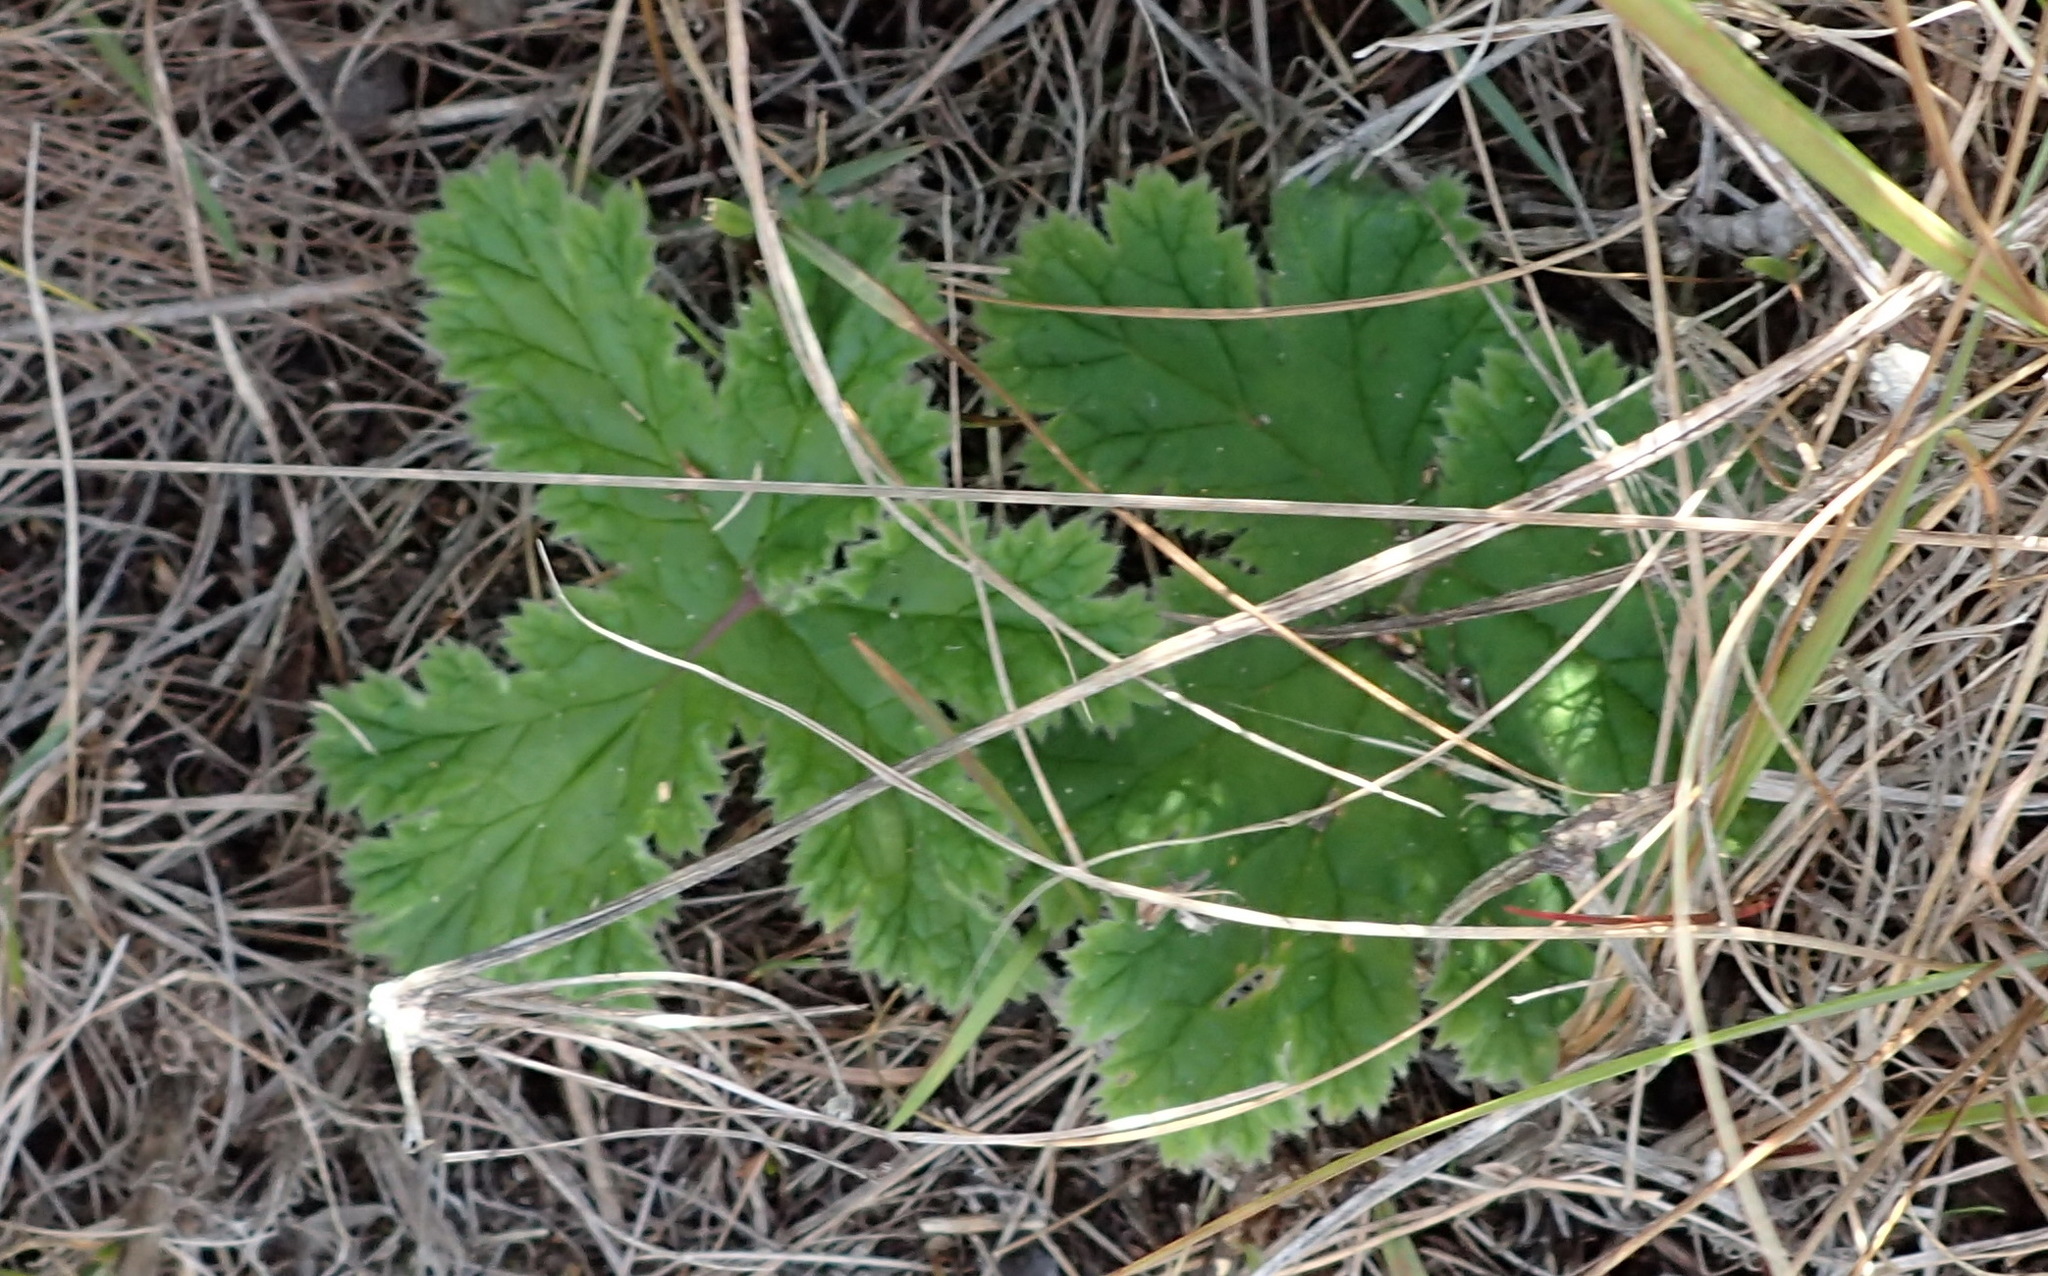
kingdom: Plantae
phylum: Tracheophyta
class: Magnoliopsida
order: Geraniales
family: Geraniaceae
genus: Pelargonium
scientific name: Pelargonium lobatum
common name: Vine-leaf pelargonium
